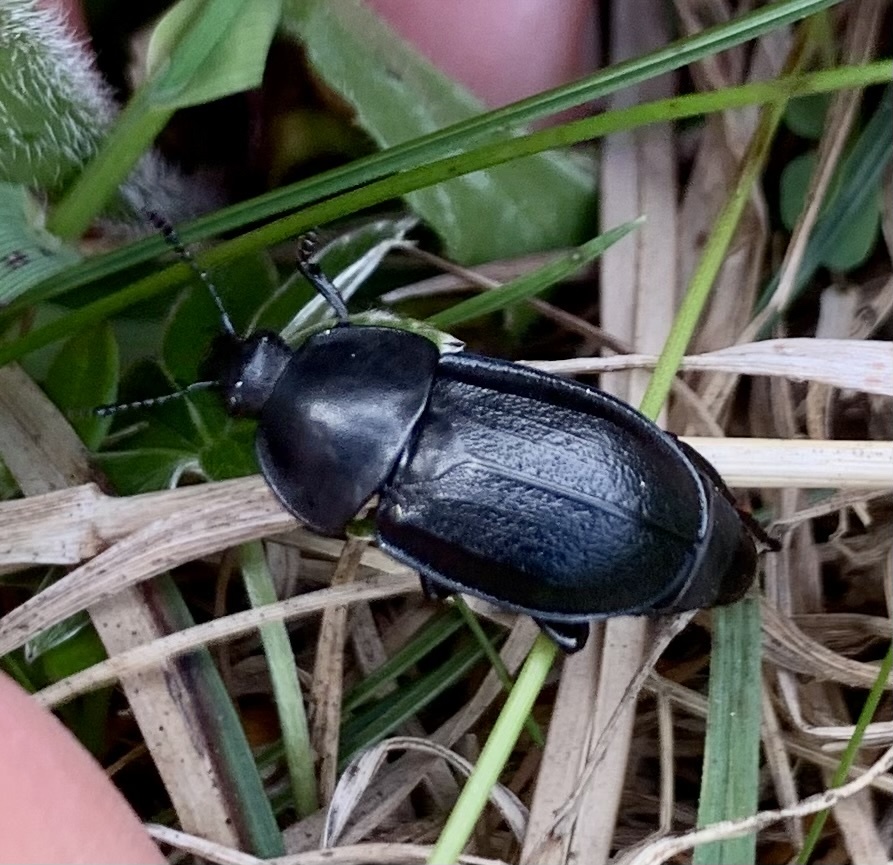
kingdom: Animalia
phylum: Arthropoda
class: Insecta
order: Coleoptera
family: Staphylinidae
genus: Silpha
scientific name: Silpha tyrolensis
